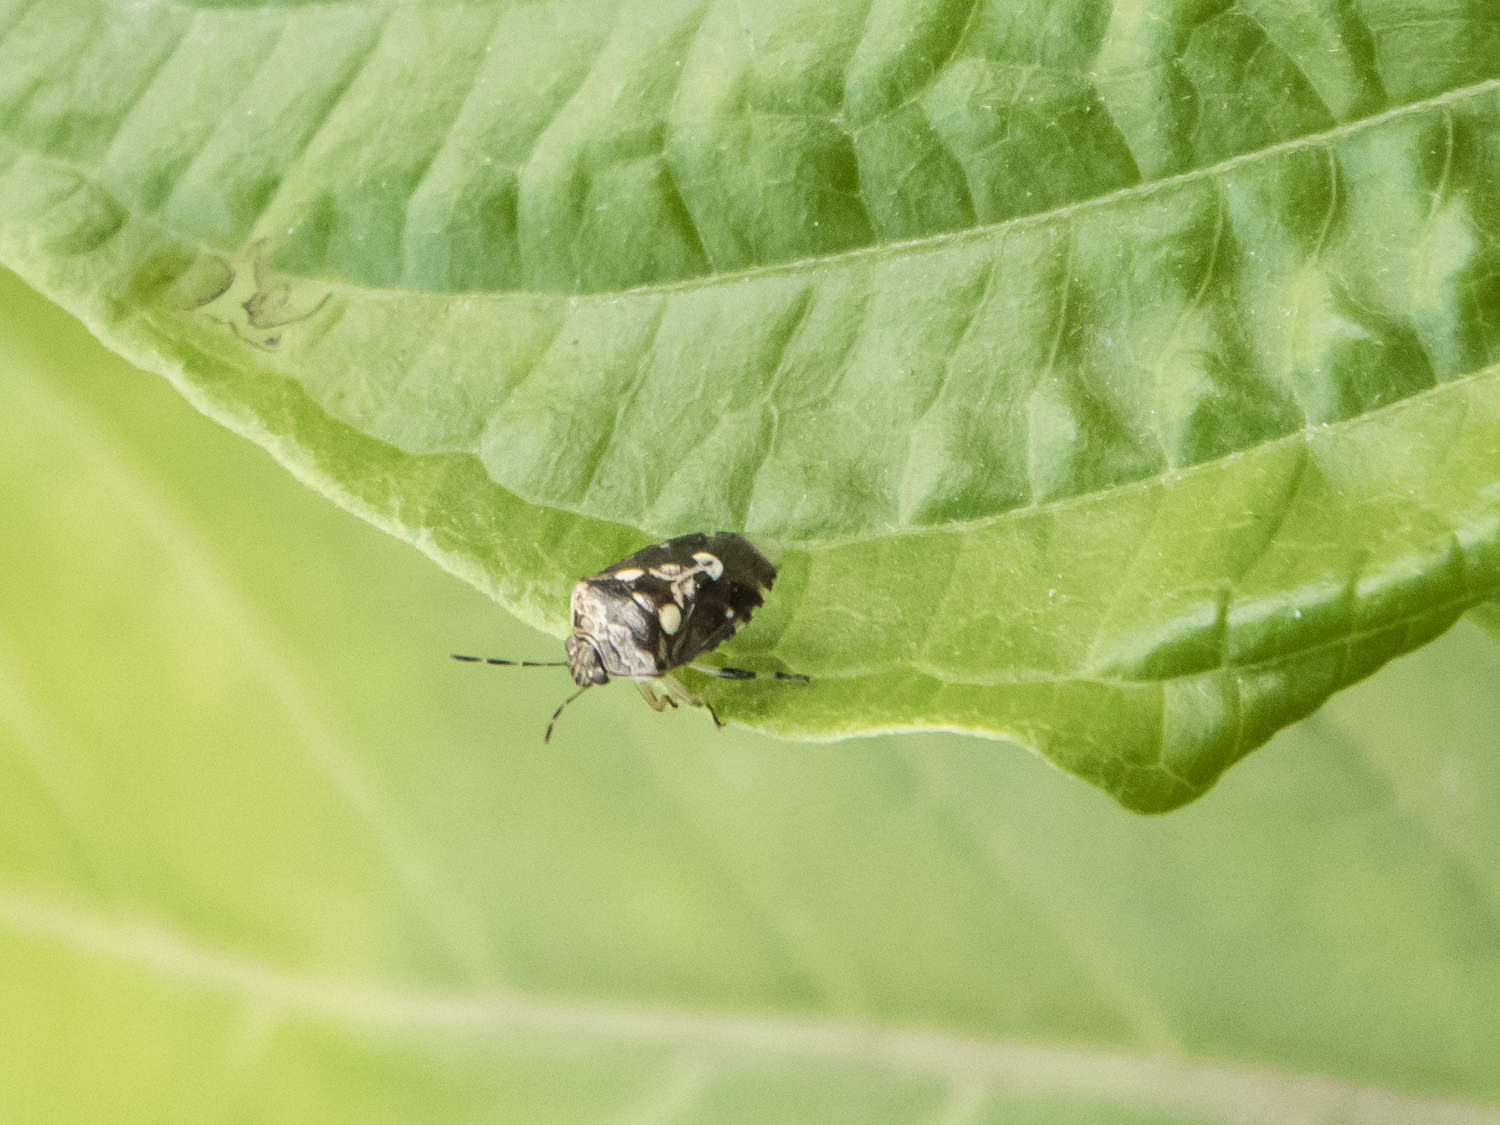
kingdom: Animalia
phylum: Arthropoda
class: Insecta
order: Hemiptera
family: Pentatomidae
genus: Menida
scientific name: Menida formosa
